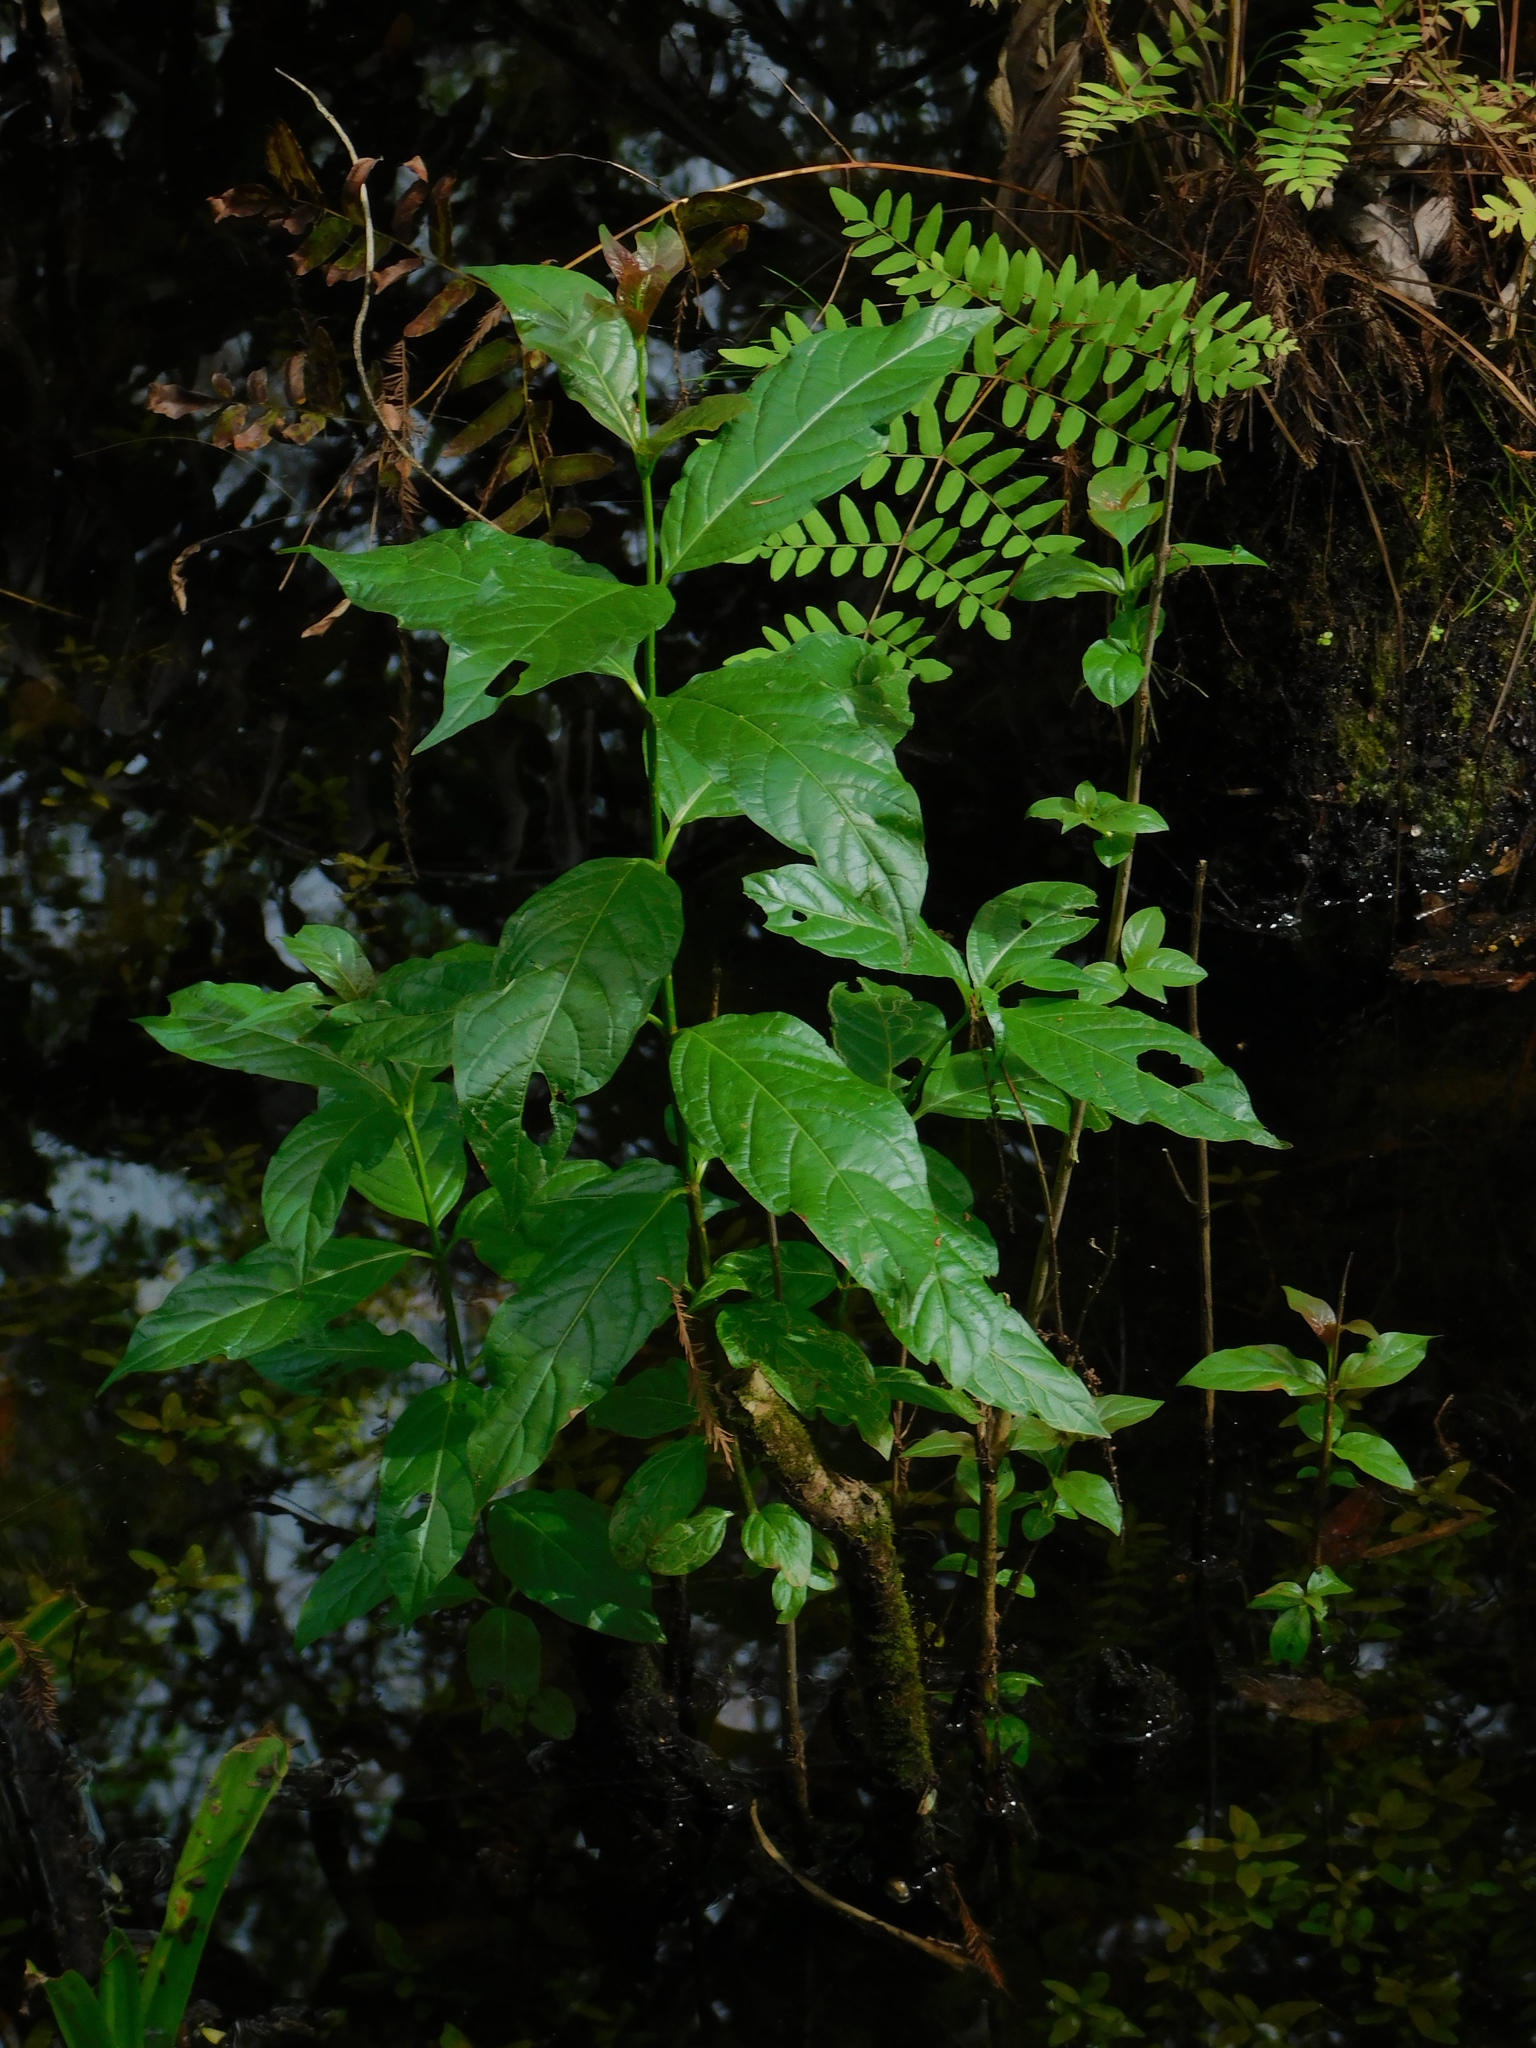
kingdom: Plantae
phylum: Tracheophyta
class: Magnoliopsida
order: Gentianales
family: Rubiaceae
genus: Cephalanthus
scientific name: Cephalanthus occidentalis
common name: Button-willow
